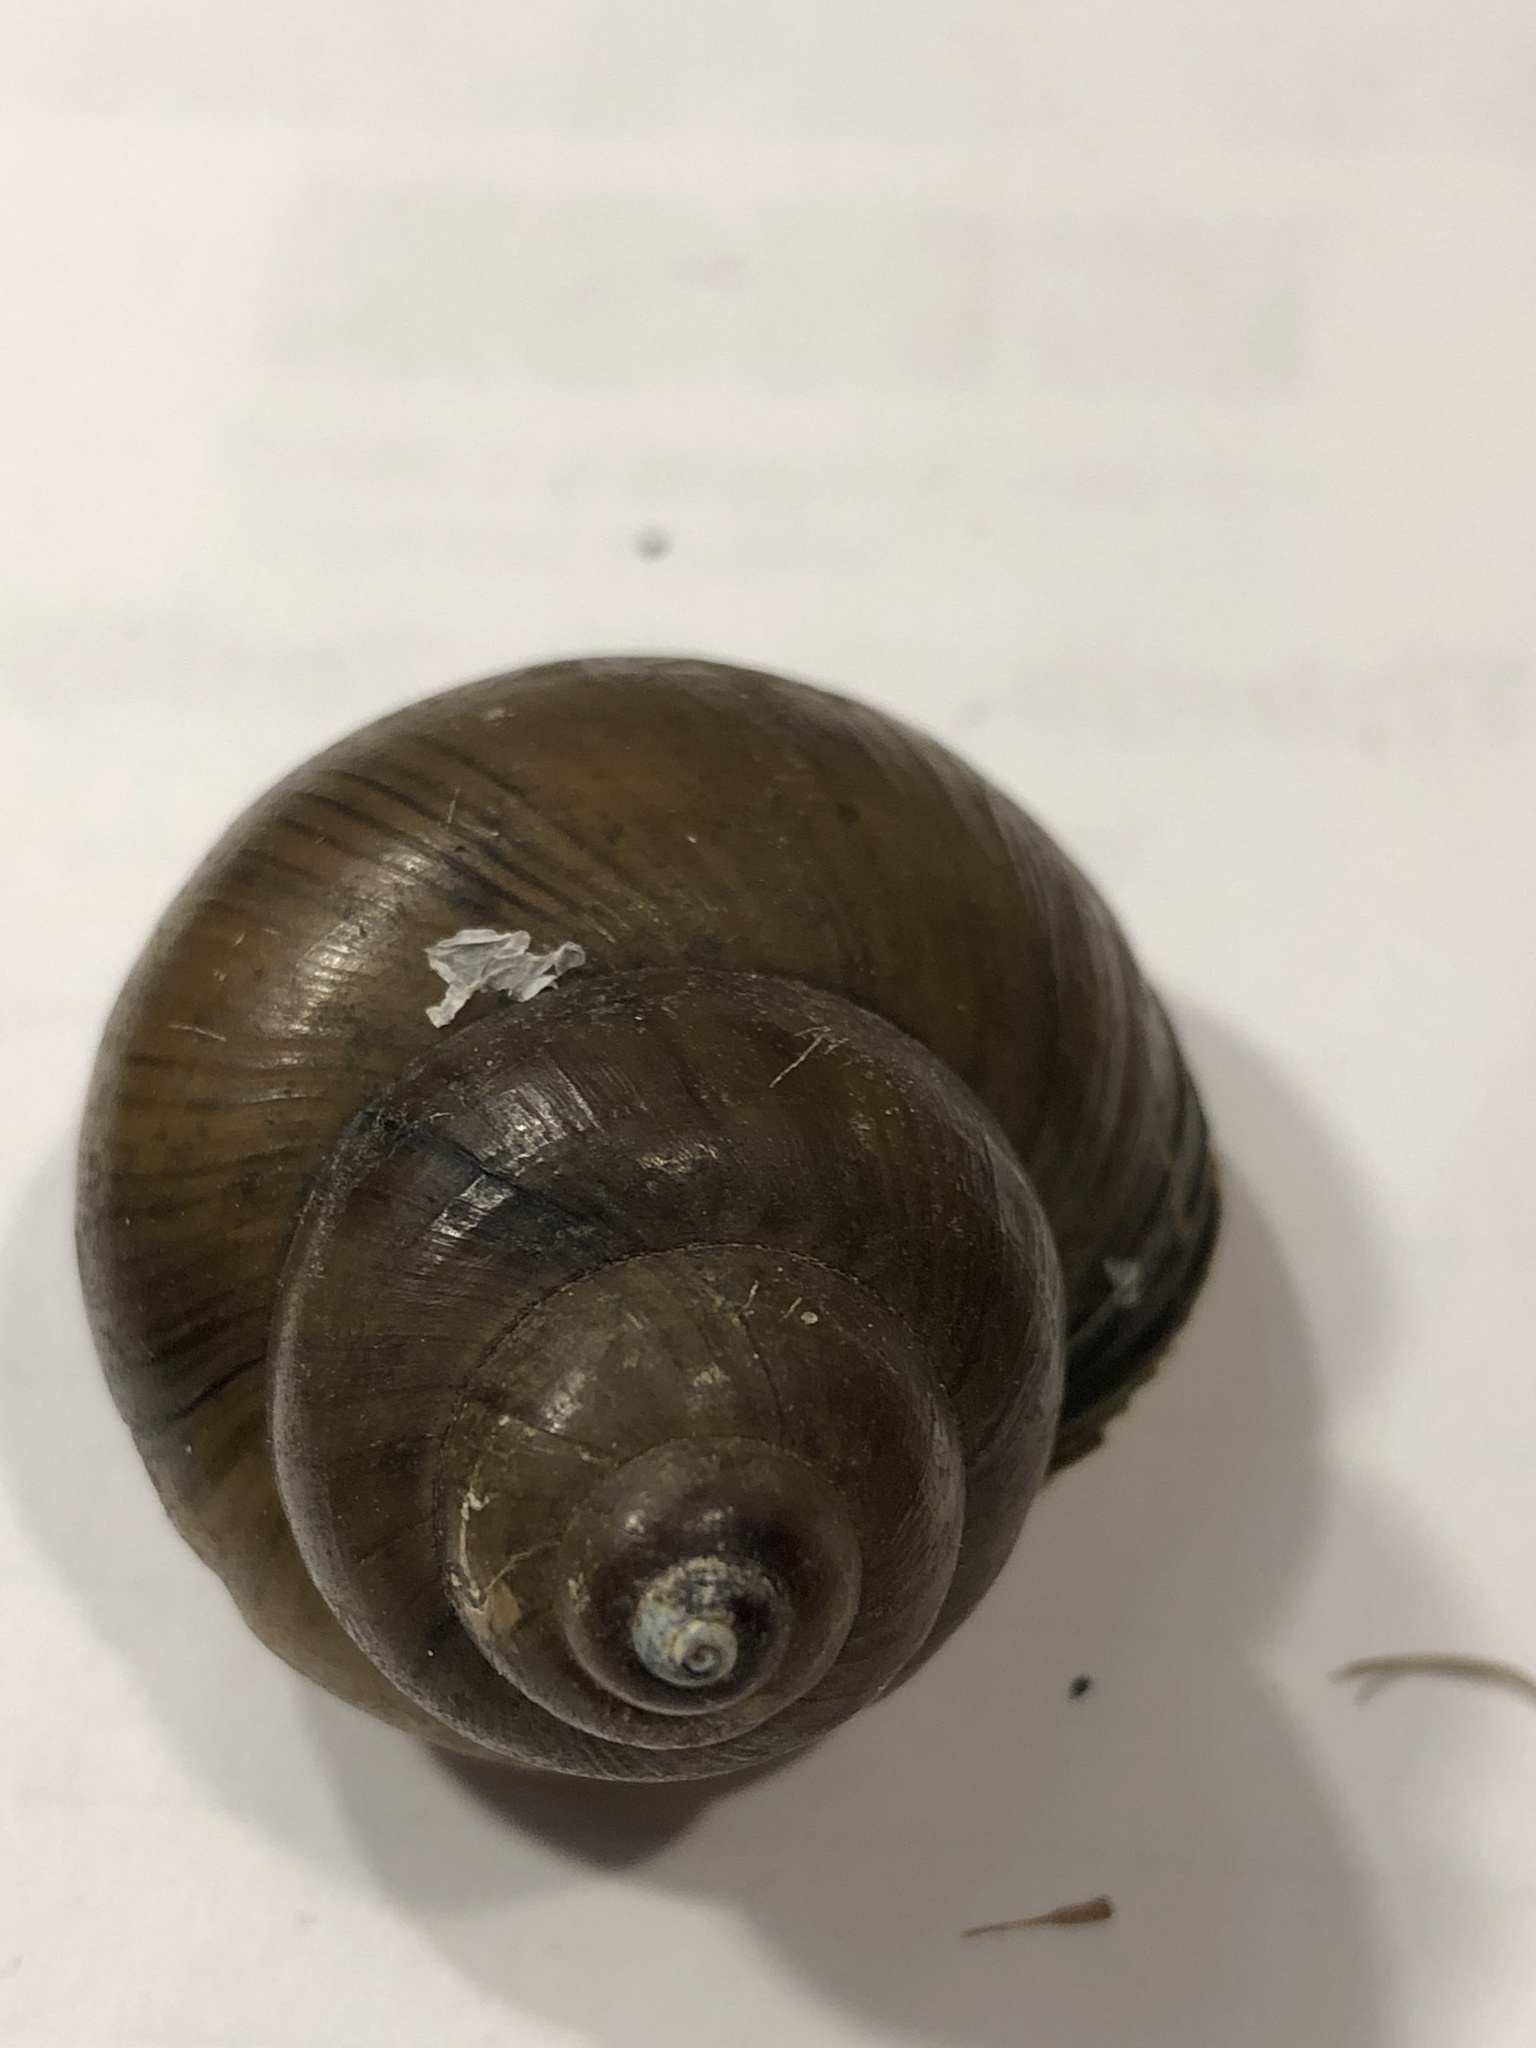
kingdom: Animalia
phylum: Mollusca
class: Gastropoda
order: Architaenioglossa
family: Viviparidae
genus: Cipangopaludina
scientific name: Cipangopaludina chinensis
